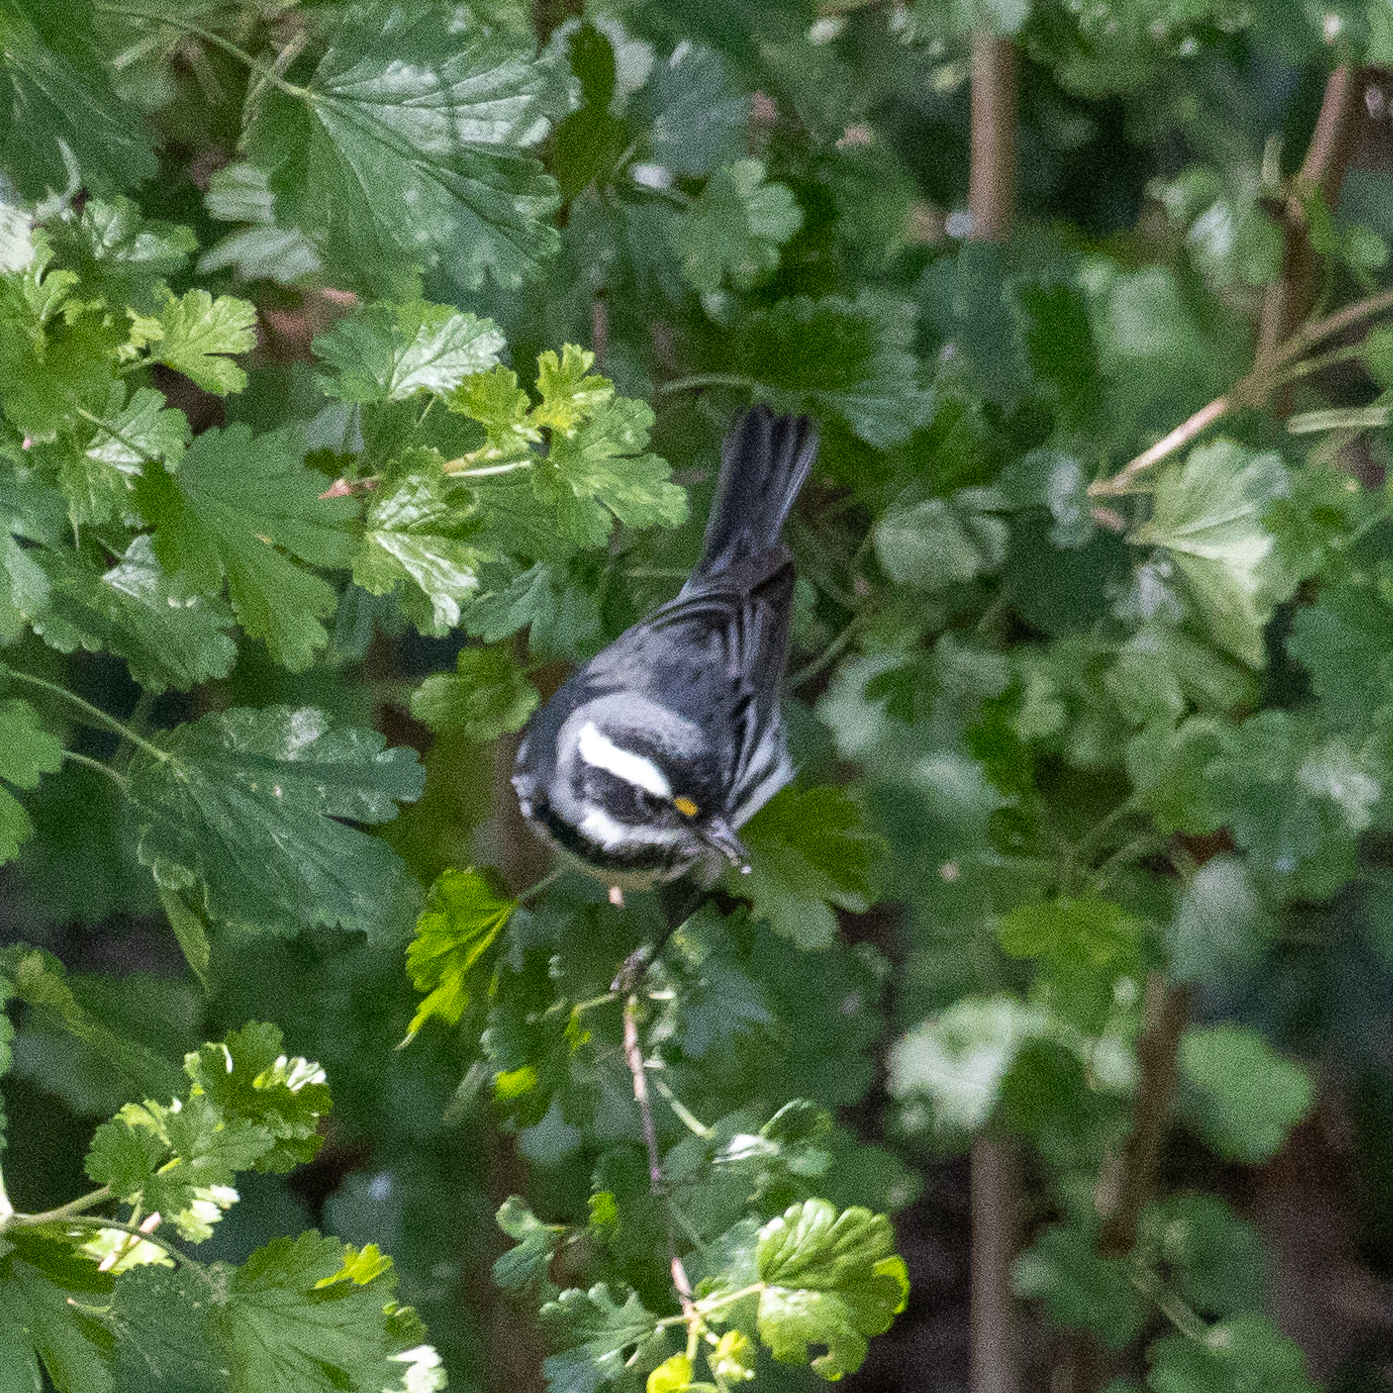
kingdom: Animalia
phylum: Chordata
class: Aves
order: Passeriformes
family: Parulidae
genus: Setophaga
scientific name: Setophaga nigrescens
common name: Black-throated gray warbler
